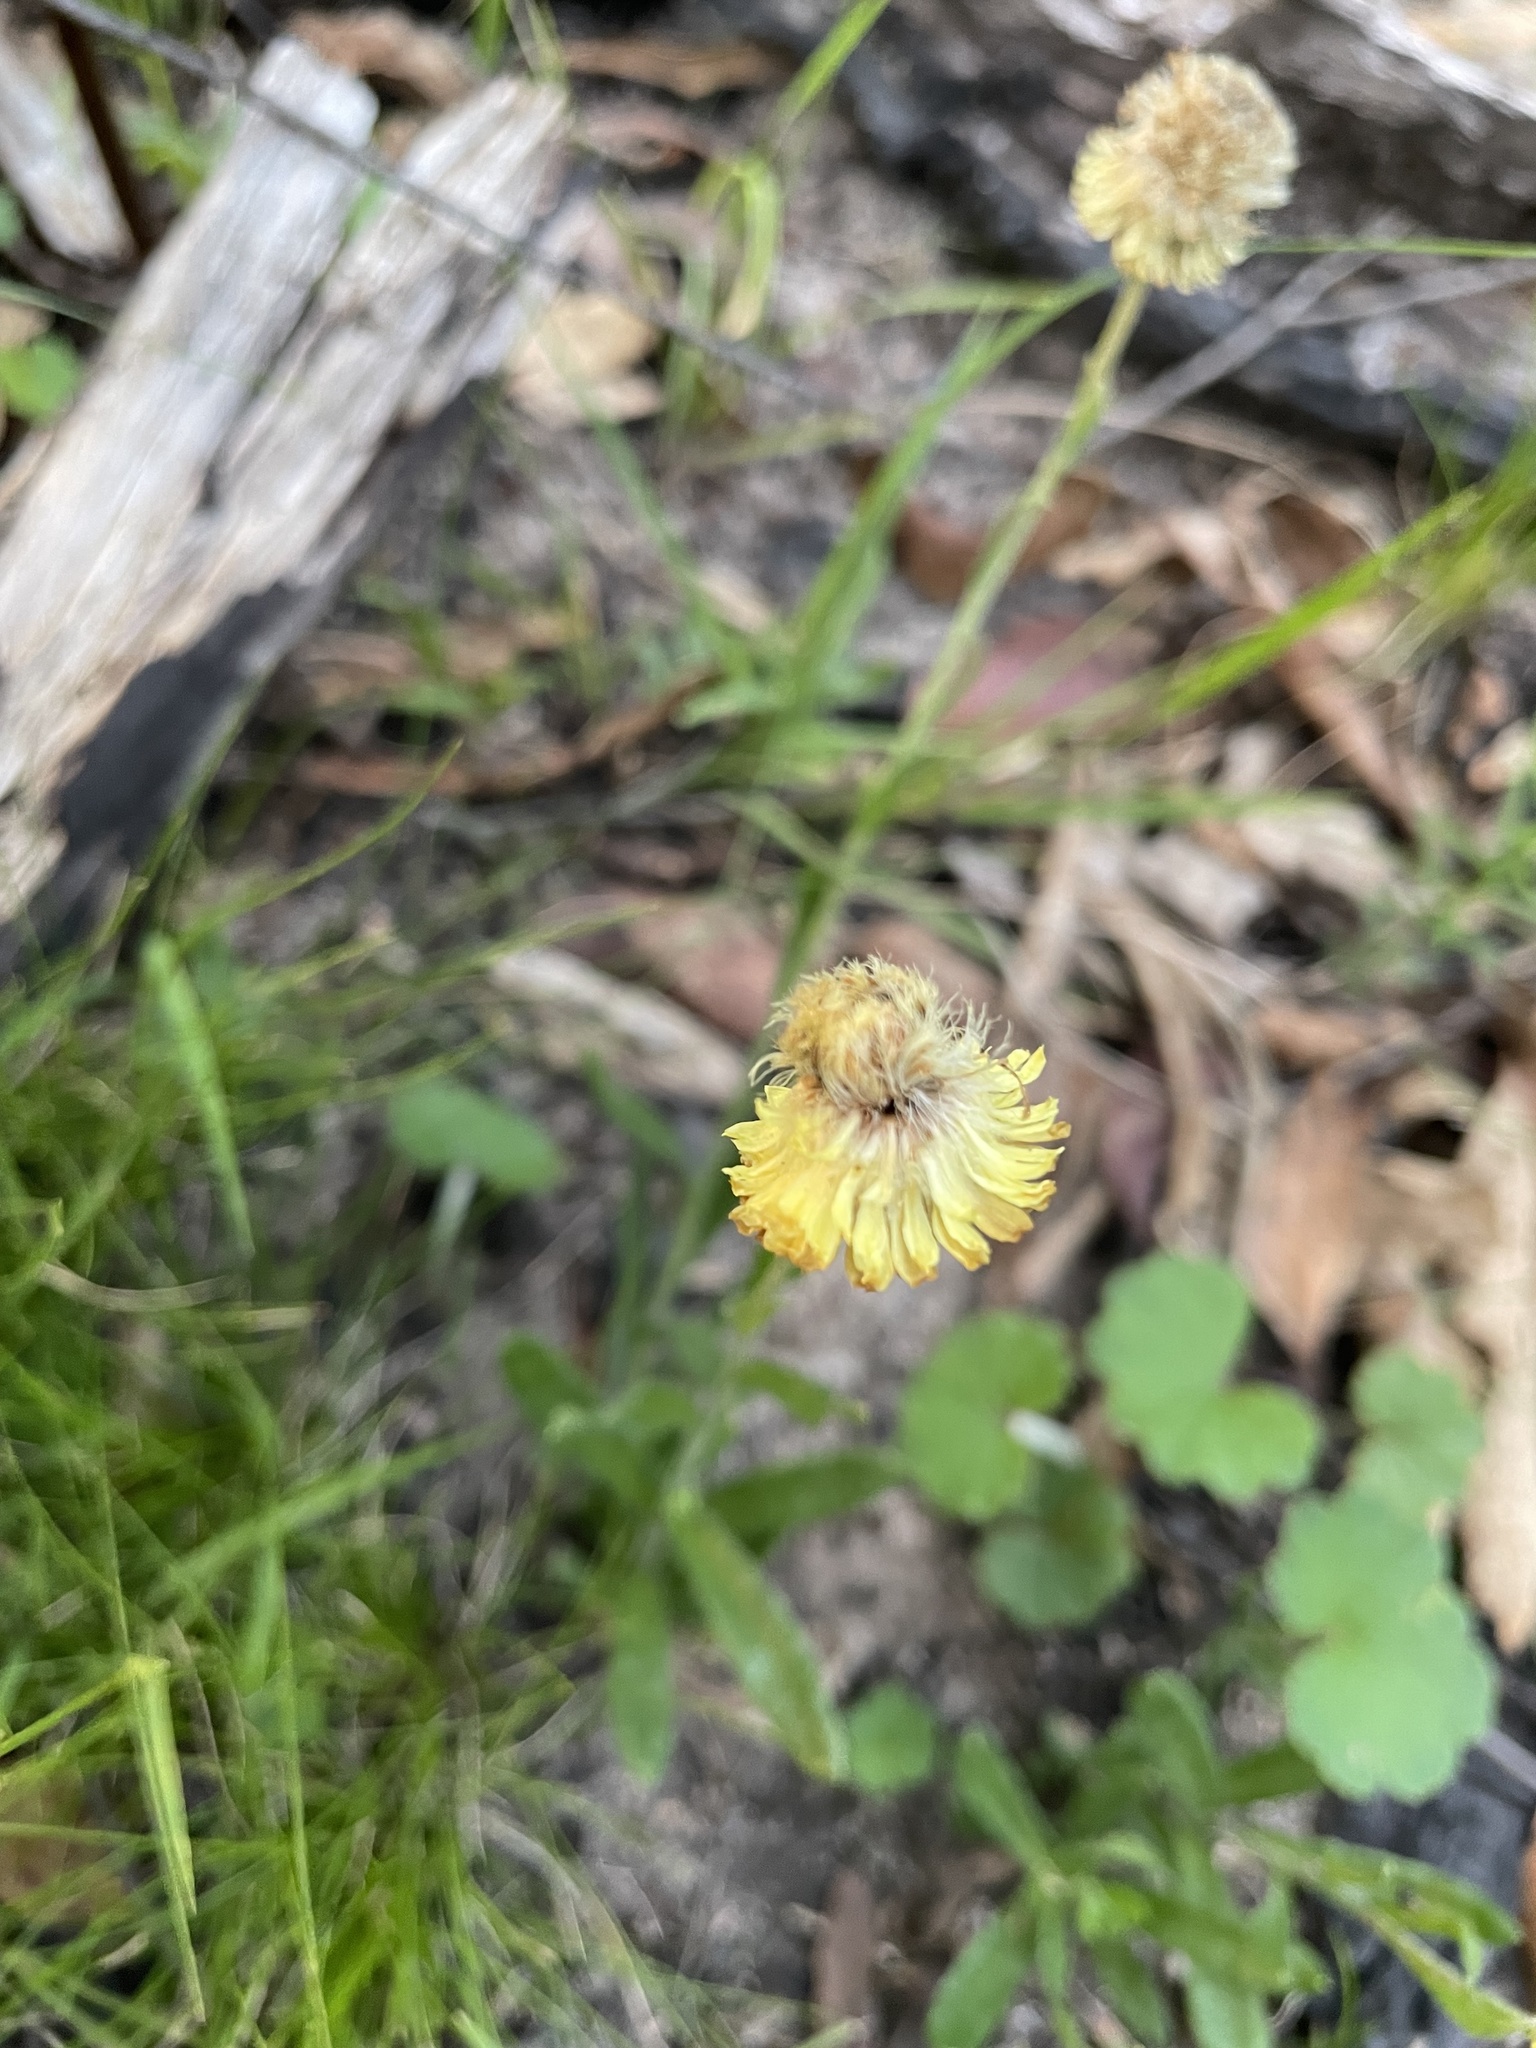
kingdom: Plantae
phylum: Tracheophyta
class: Magnoliopsida
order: Asterales
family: Asteraceae
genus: Coronidium
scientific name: Coronidium scorpioides
